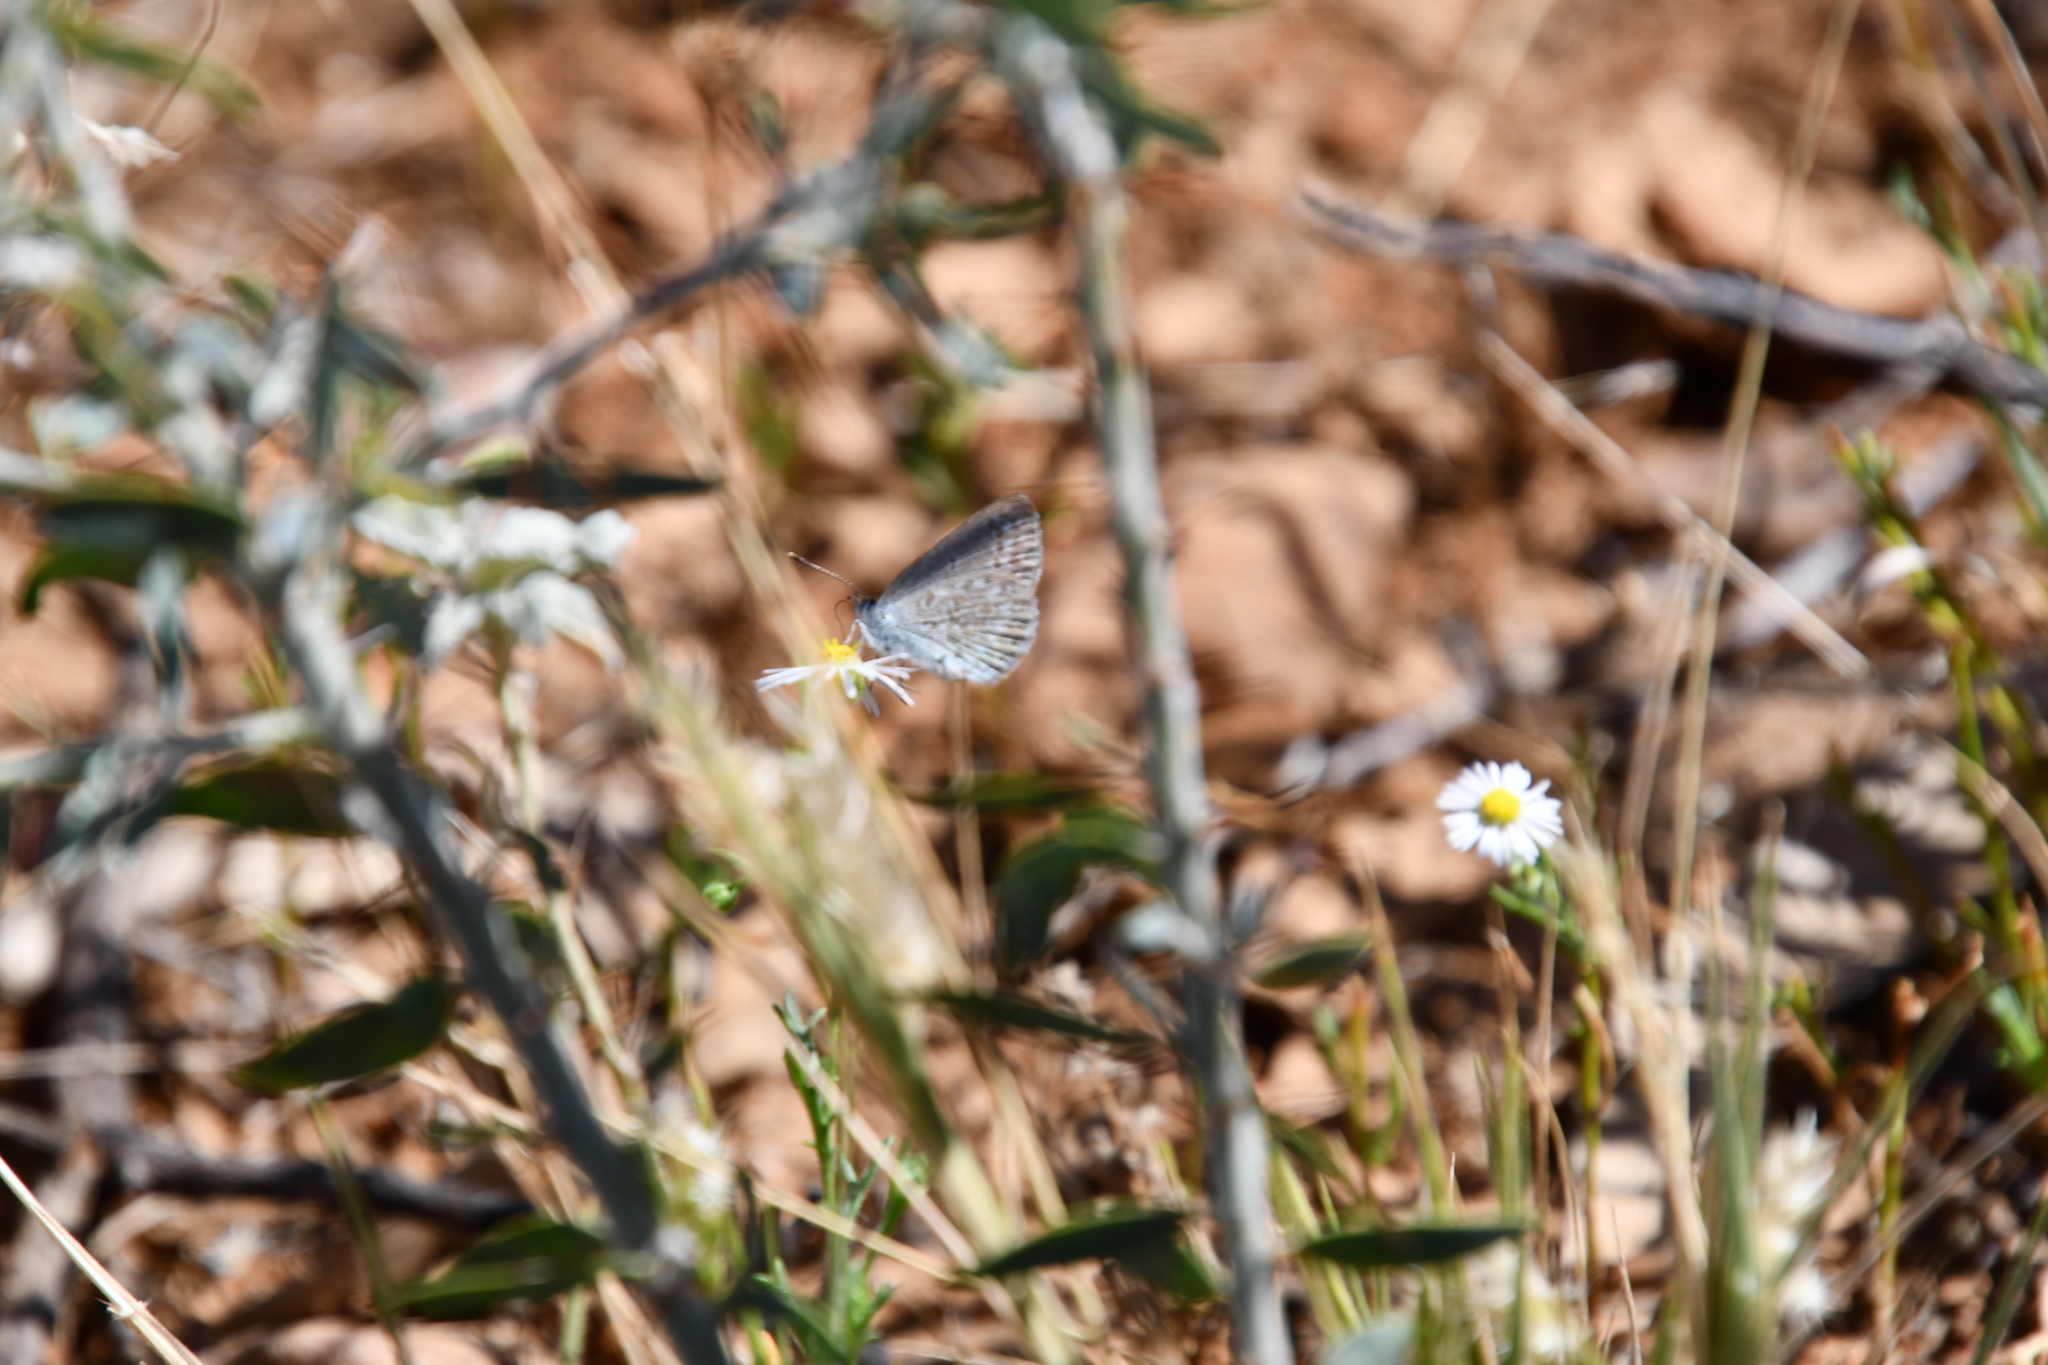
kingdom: Animalia
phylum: Arthropoda
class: Insecta
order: Lepidoptera
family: Lycaenidae
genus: Zizina
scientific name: Zizina labradus
